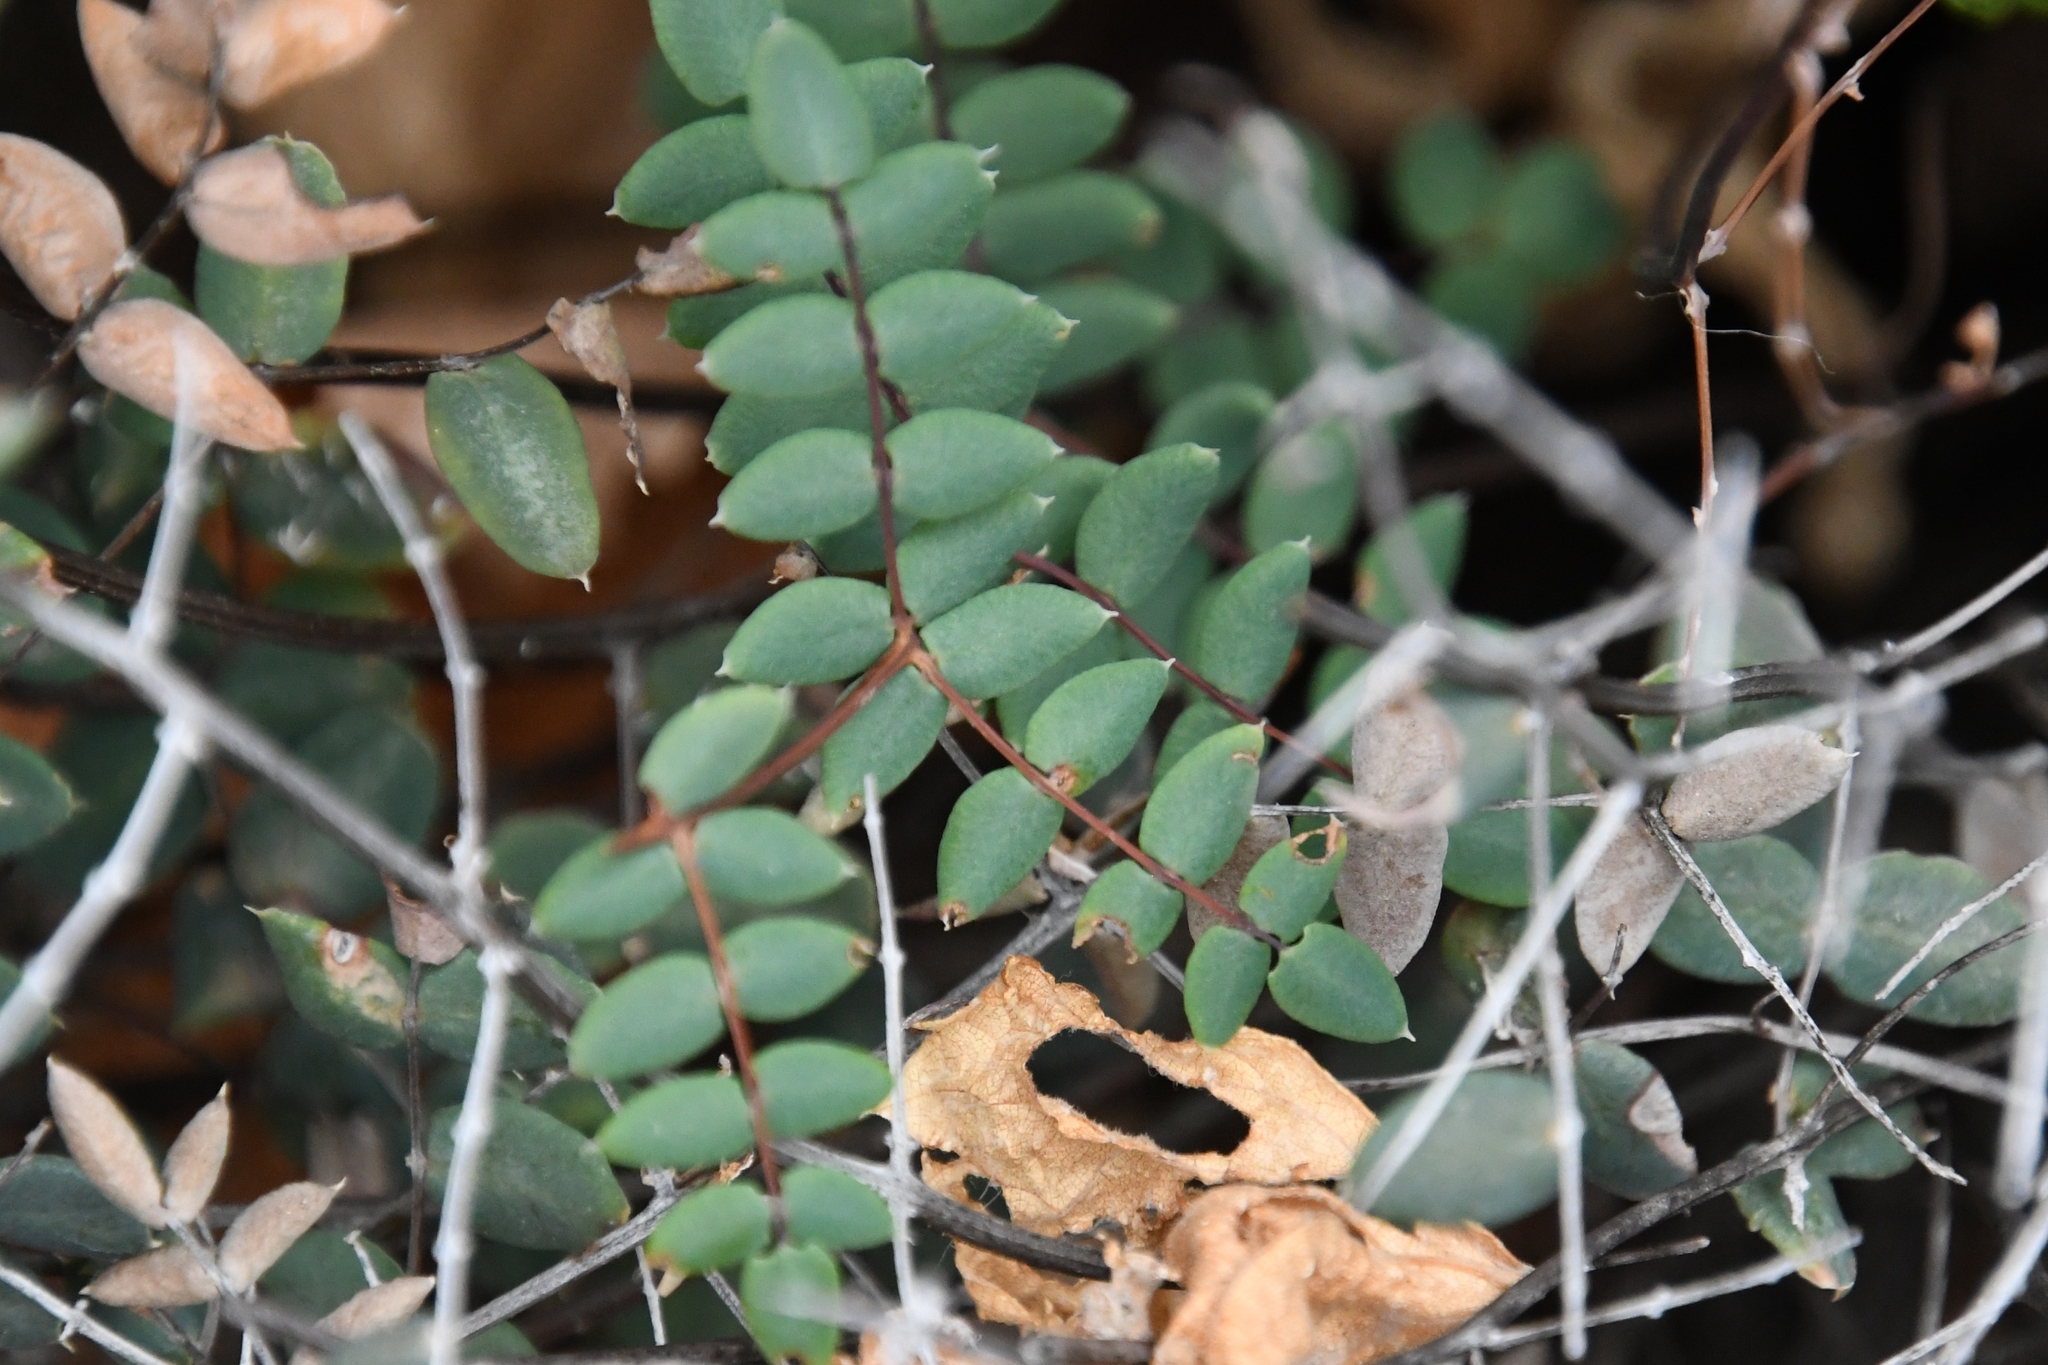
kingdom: Plantae
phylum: Tracheophyta
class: Polypodiopsida
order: Polypodiales
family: Pteridaceae
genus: Pellaea
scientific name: Pellaea truncata
